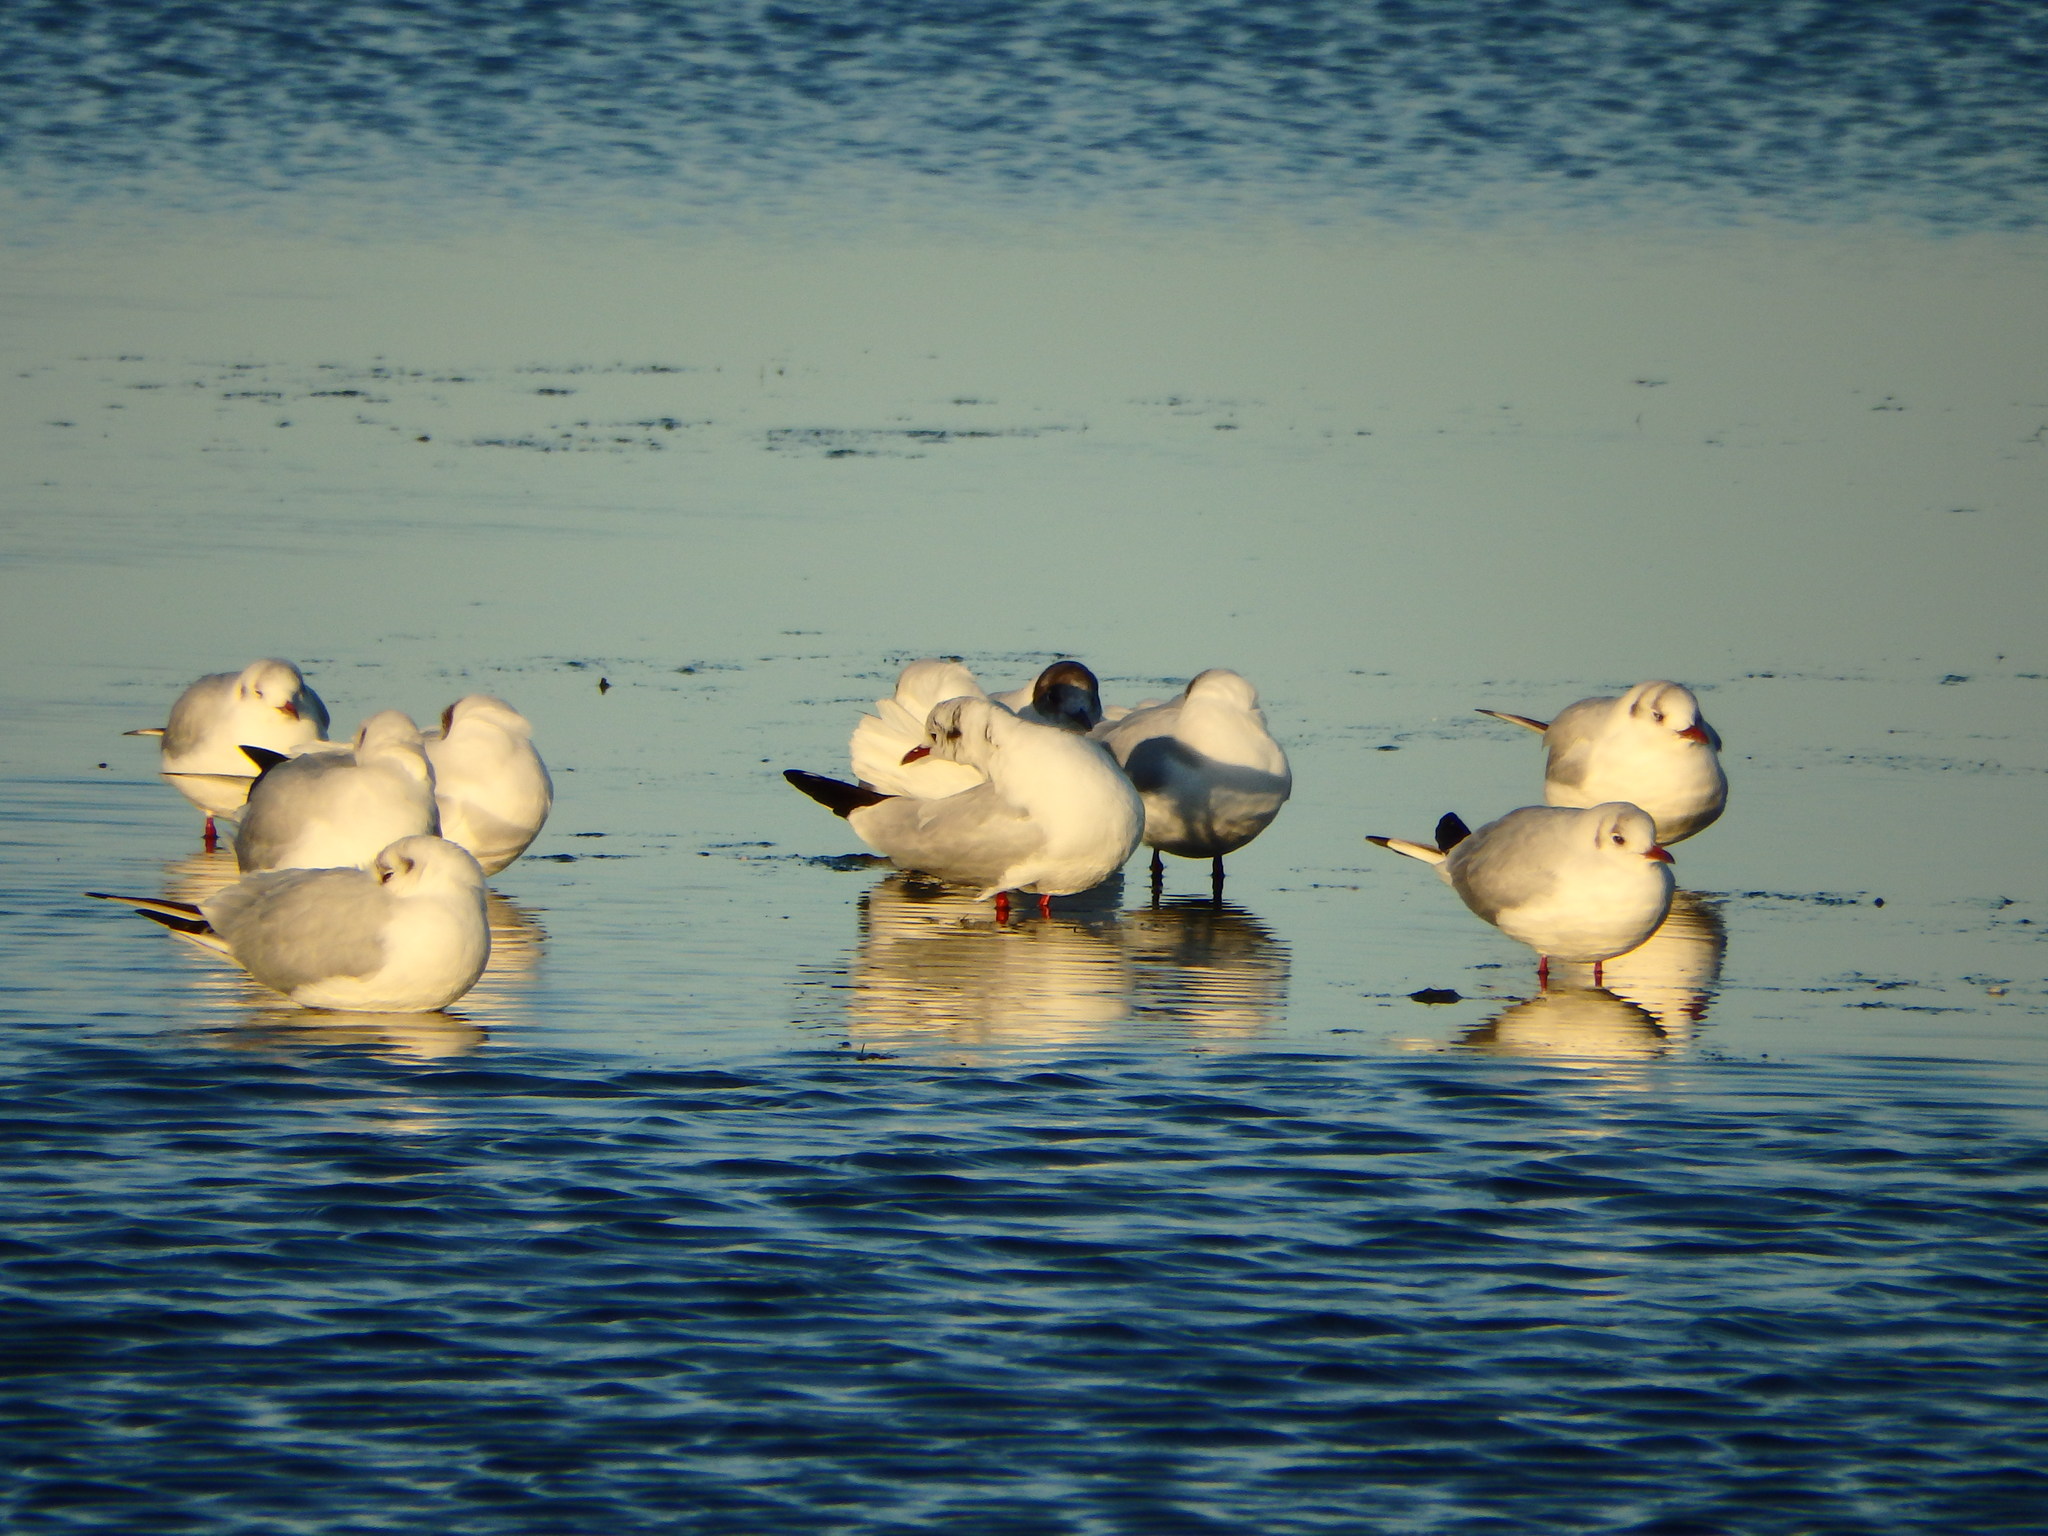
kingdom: Animalia
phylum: Chordata
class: Aves
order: Charadriiformes
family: Laridae
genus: Chroicocephalus
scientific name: Chroicocephalus ridibundus
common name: Black-headed gull
